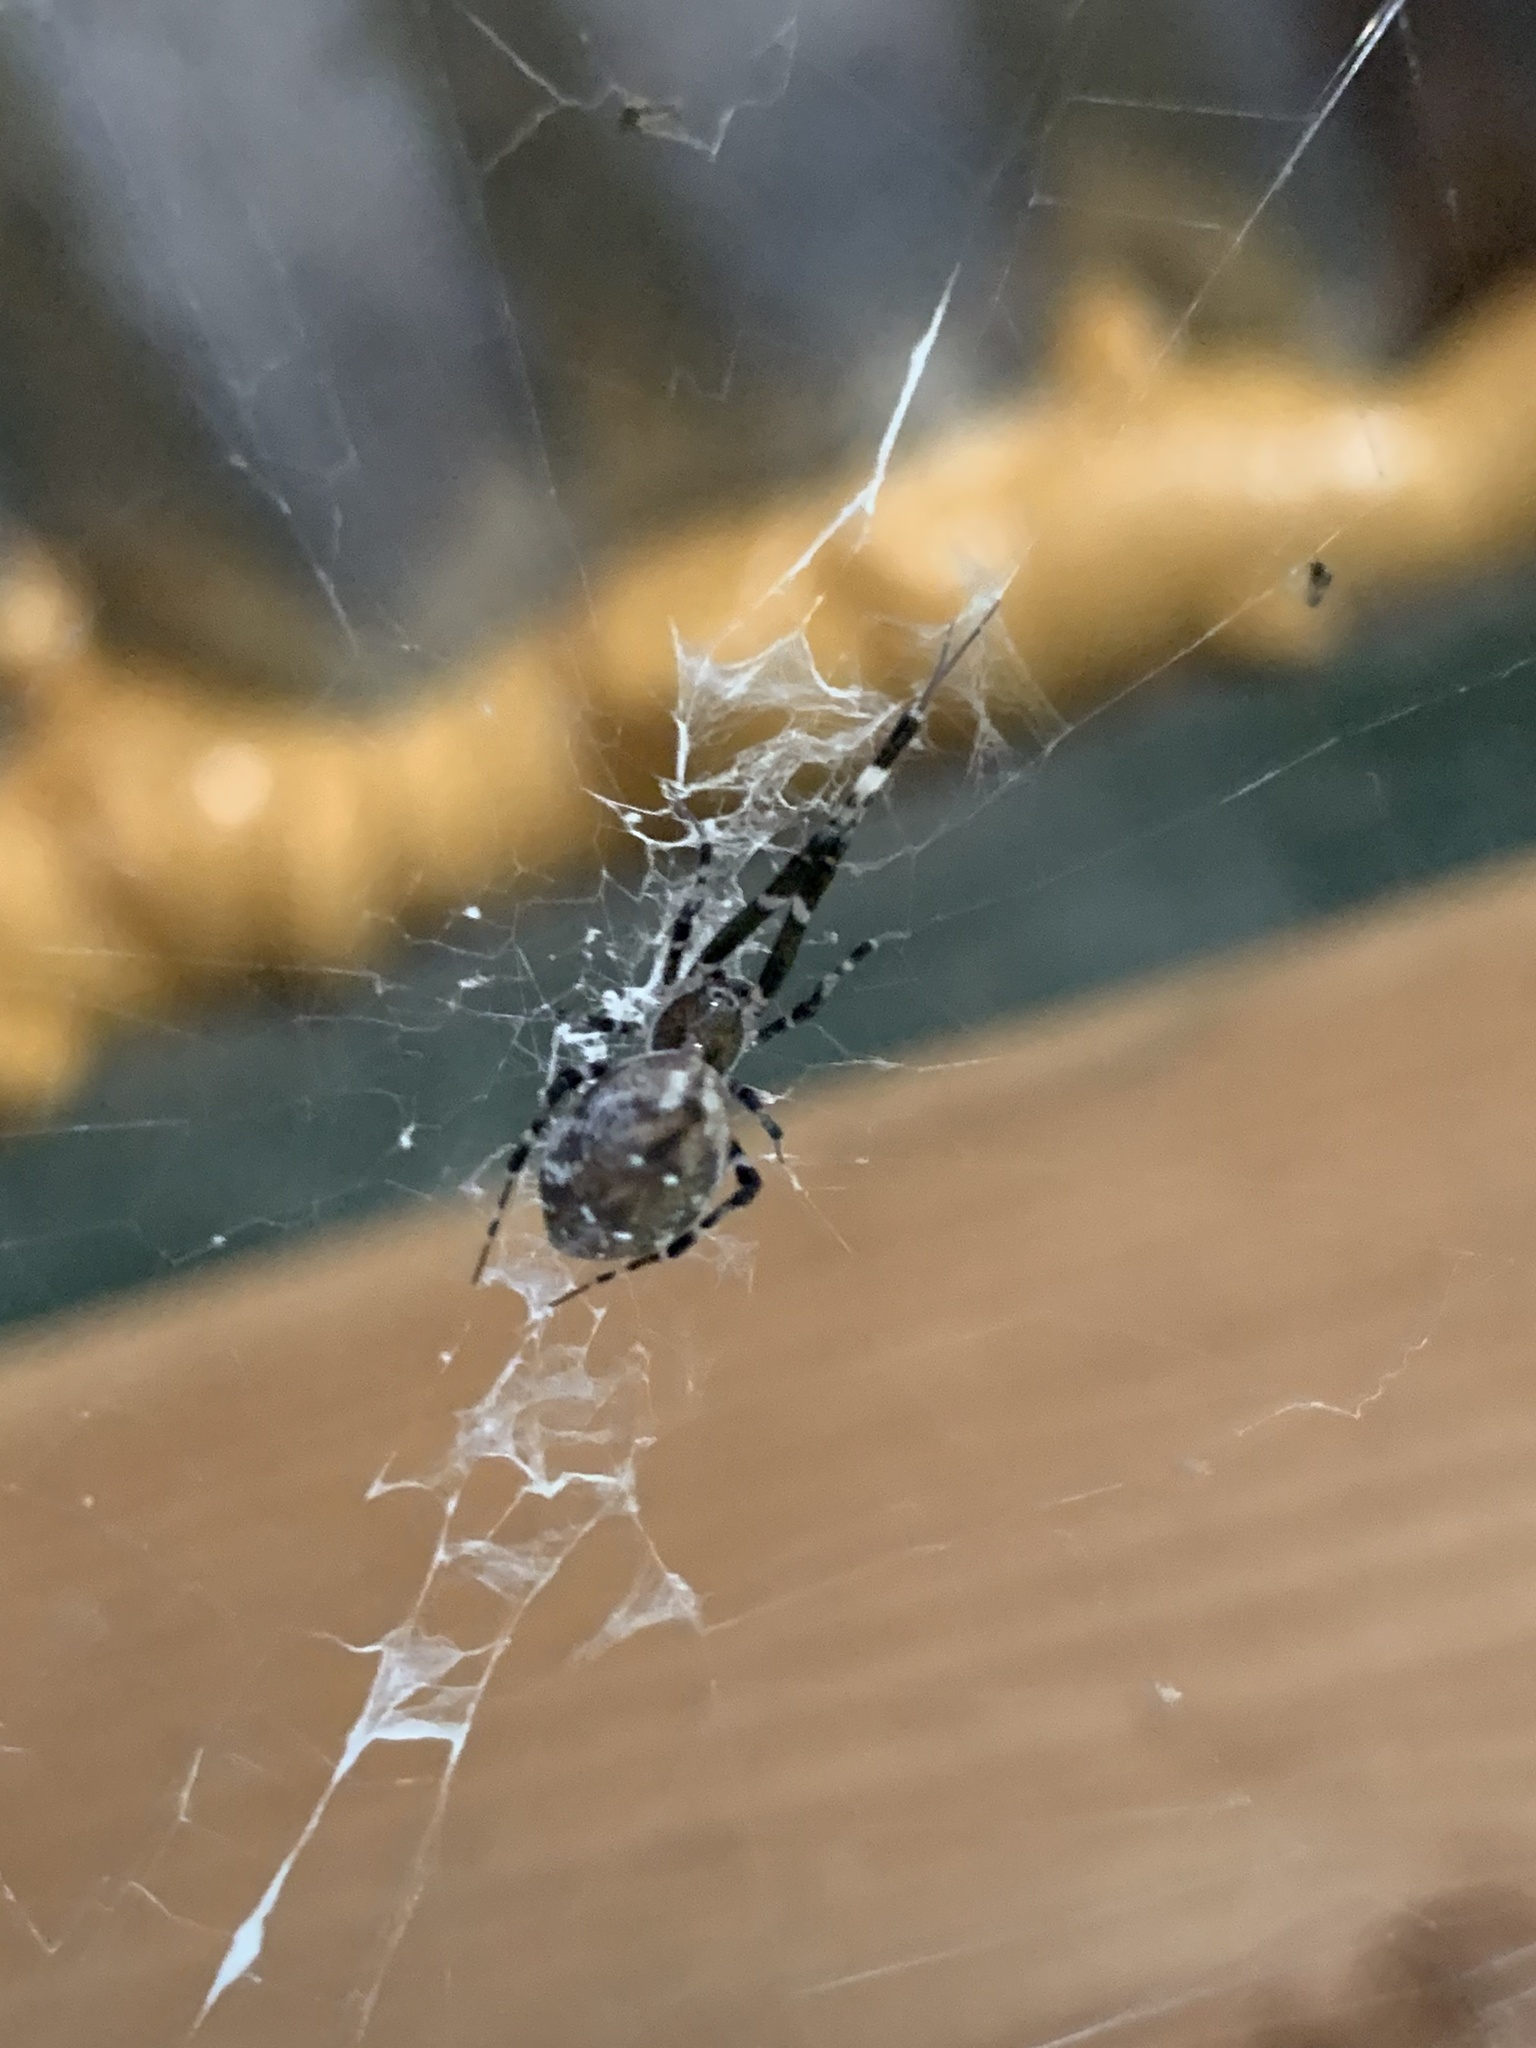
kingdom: Animalia
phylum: Arthropoda
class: Arachnida
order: Araneae
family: Uloboridae
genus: Zosis
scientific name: Zosis geniculata
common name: Hackled orb weavers
